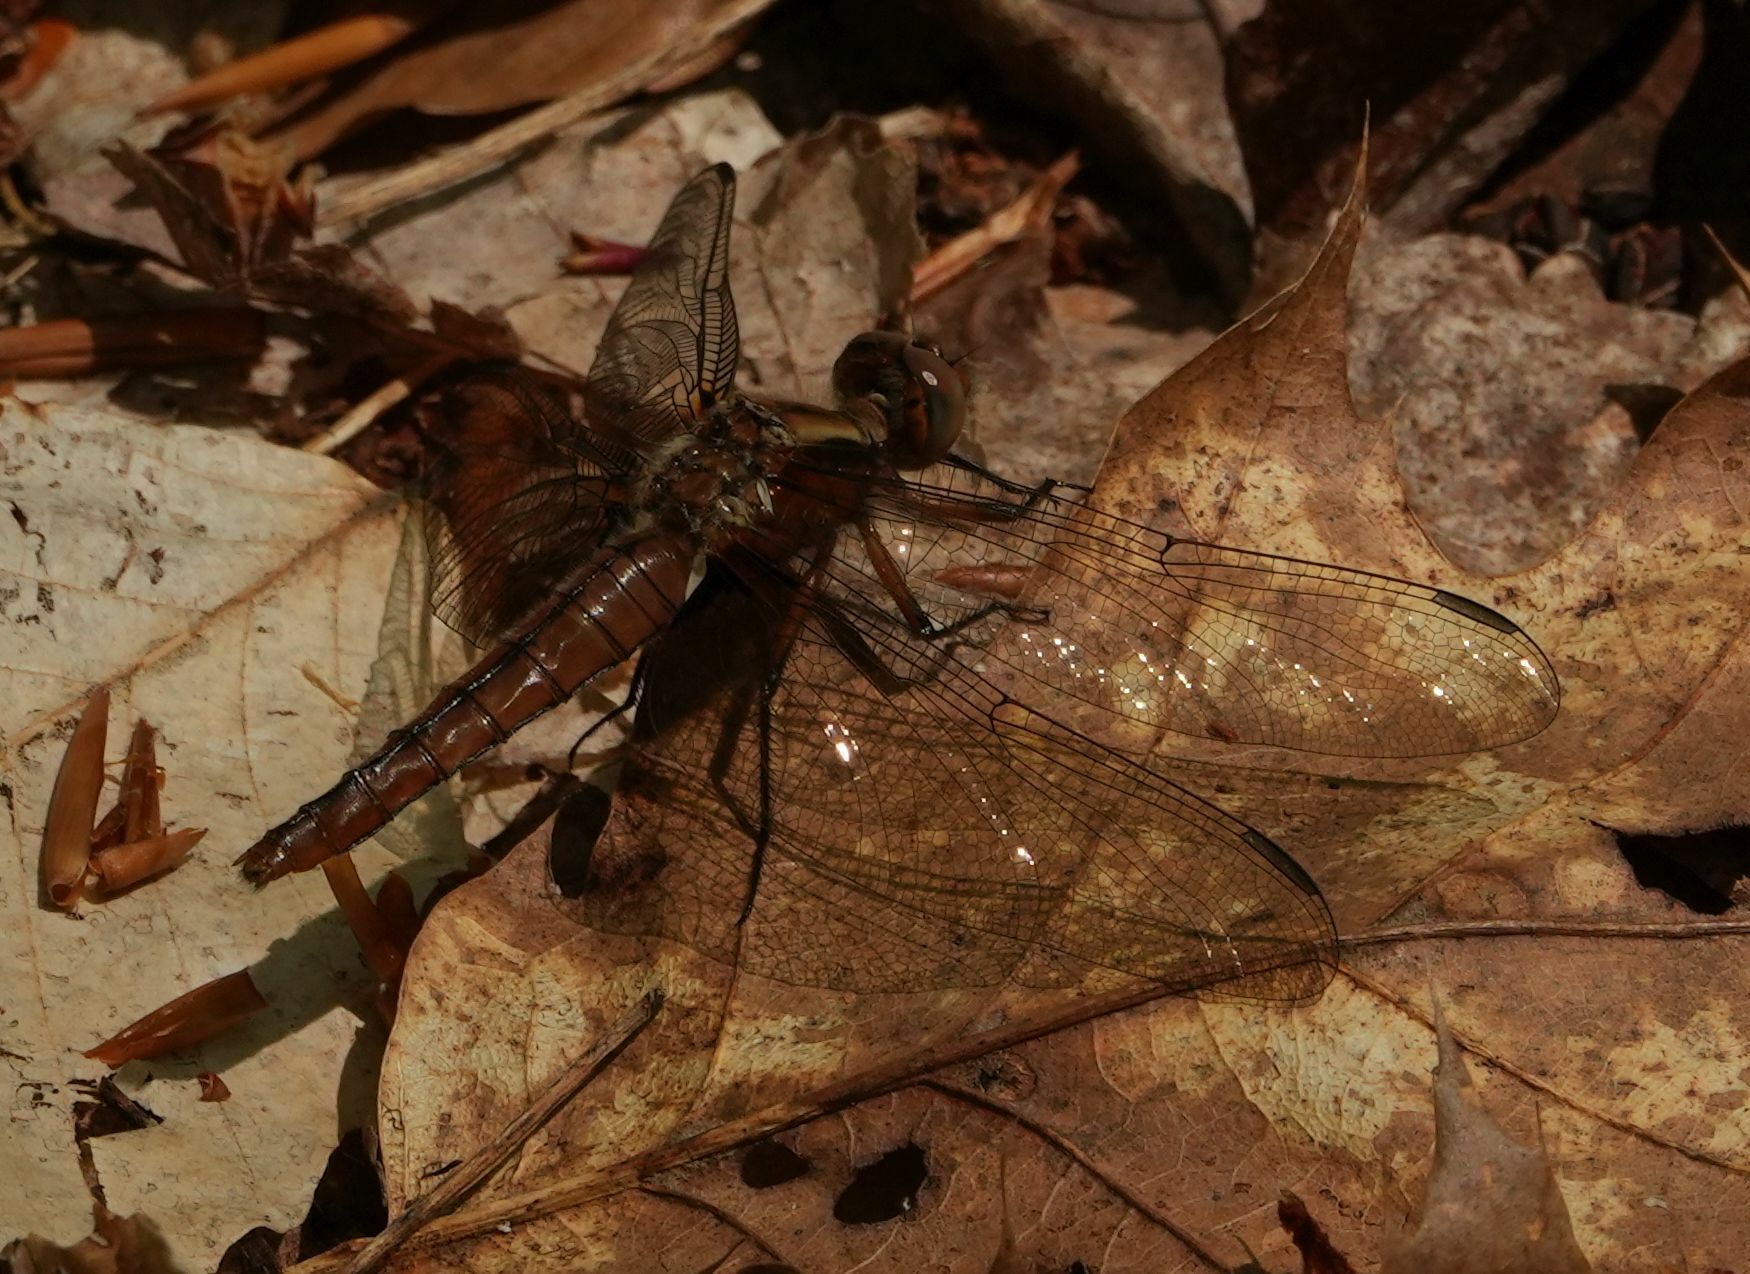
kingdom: Animalia
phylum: Arthropoda
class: Insecta
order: Odonata
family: Libellulidae
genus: Ladona
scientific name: Ladona julia
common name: Chalk-fronted corporal
